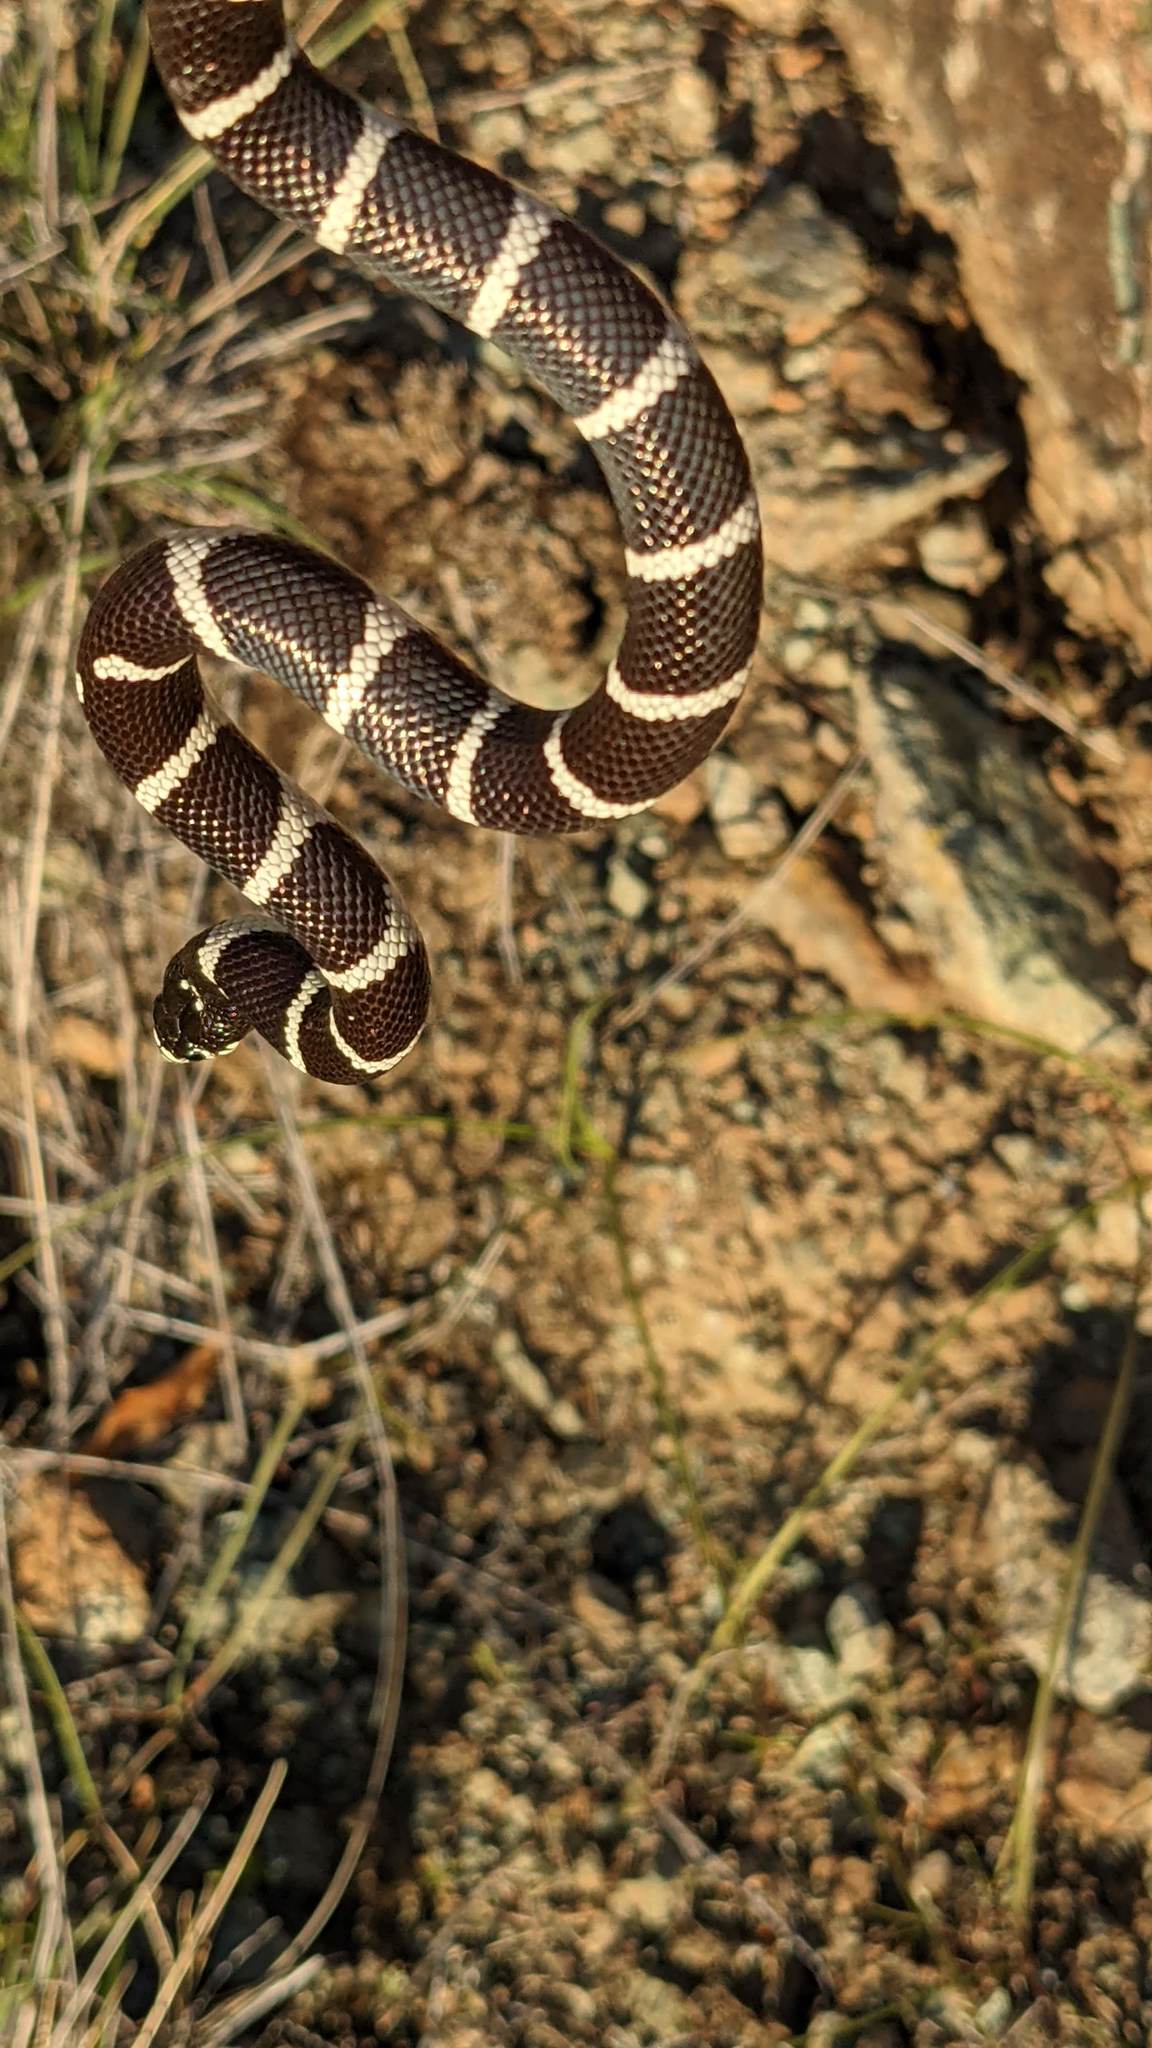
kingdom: Animalia
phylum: Chordata
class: Squamata
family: Colubridae
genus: Lampropeltis
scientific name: Lampropeltis californiae
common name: California kingsnake
